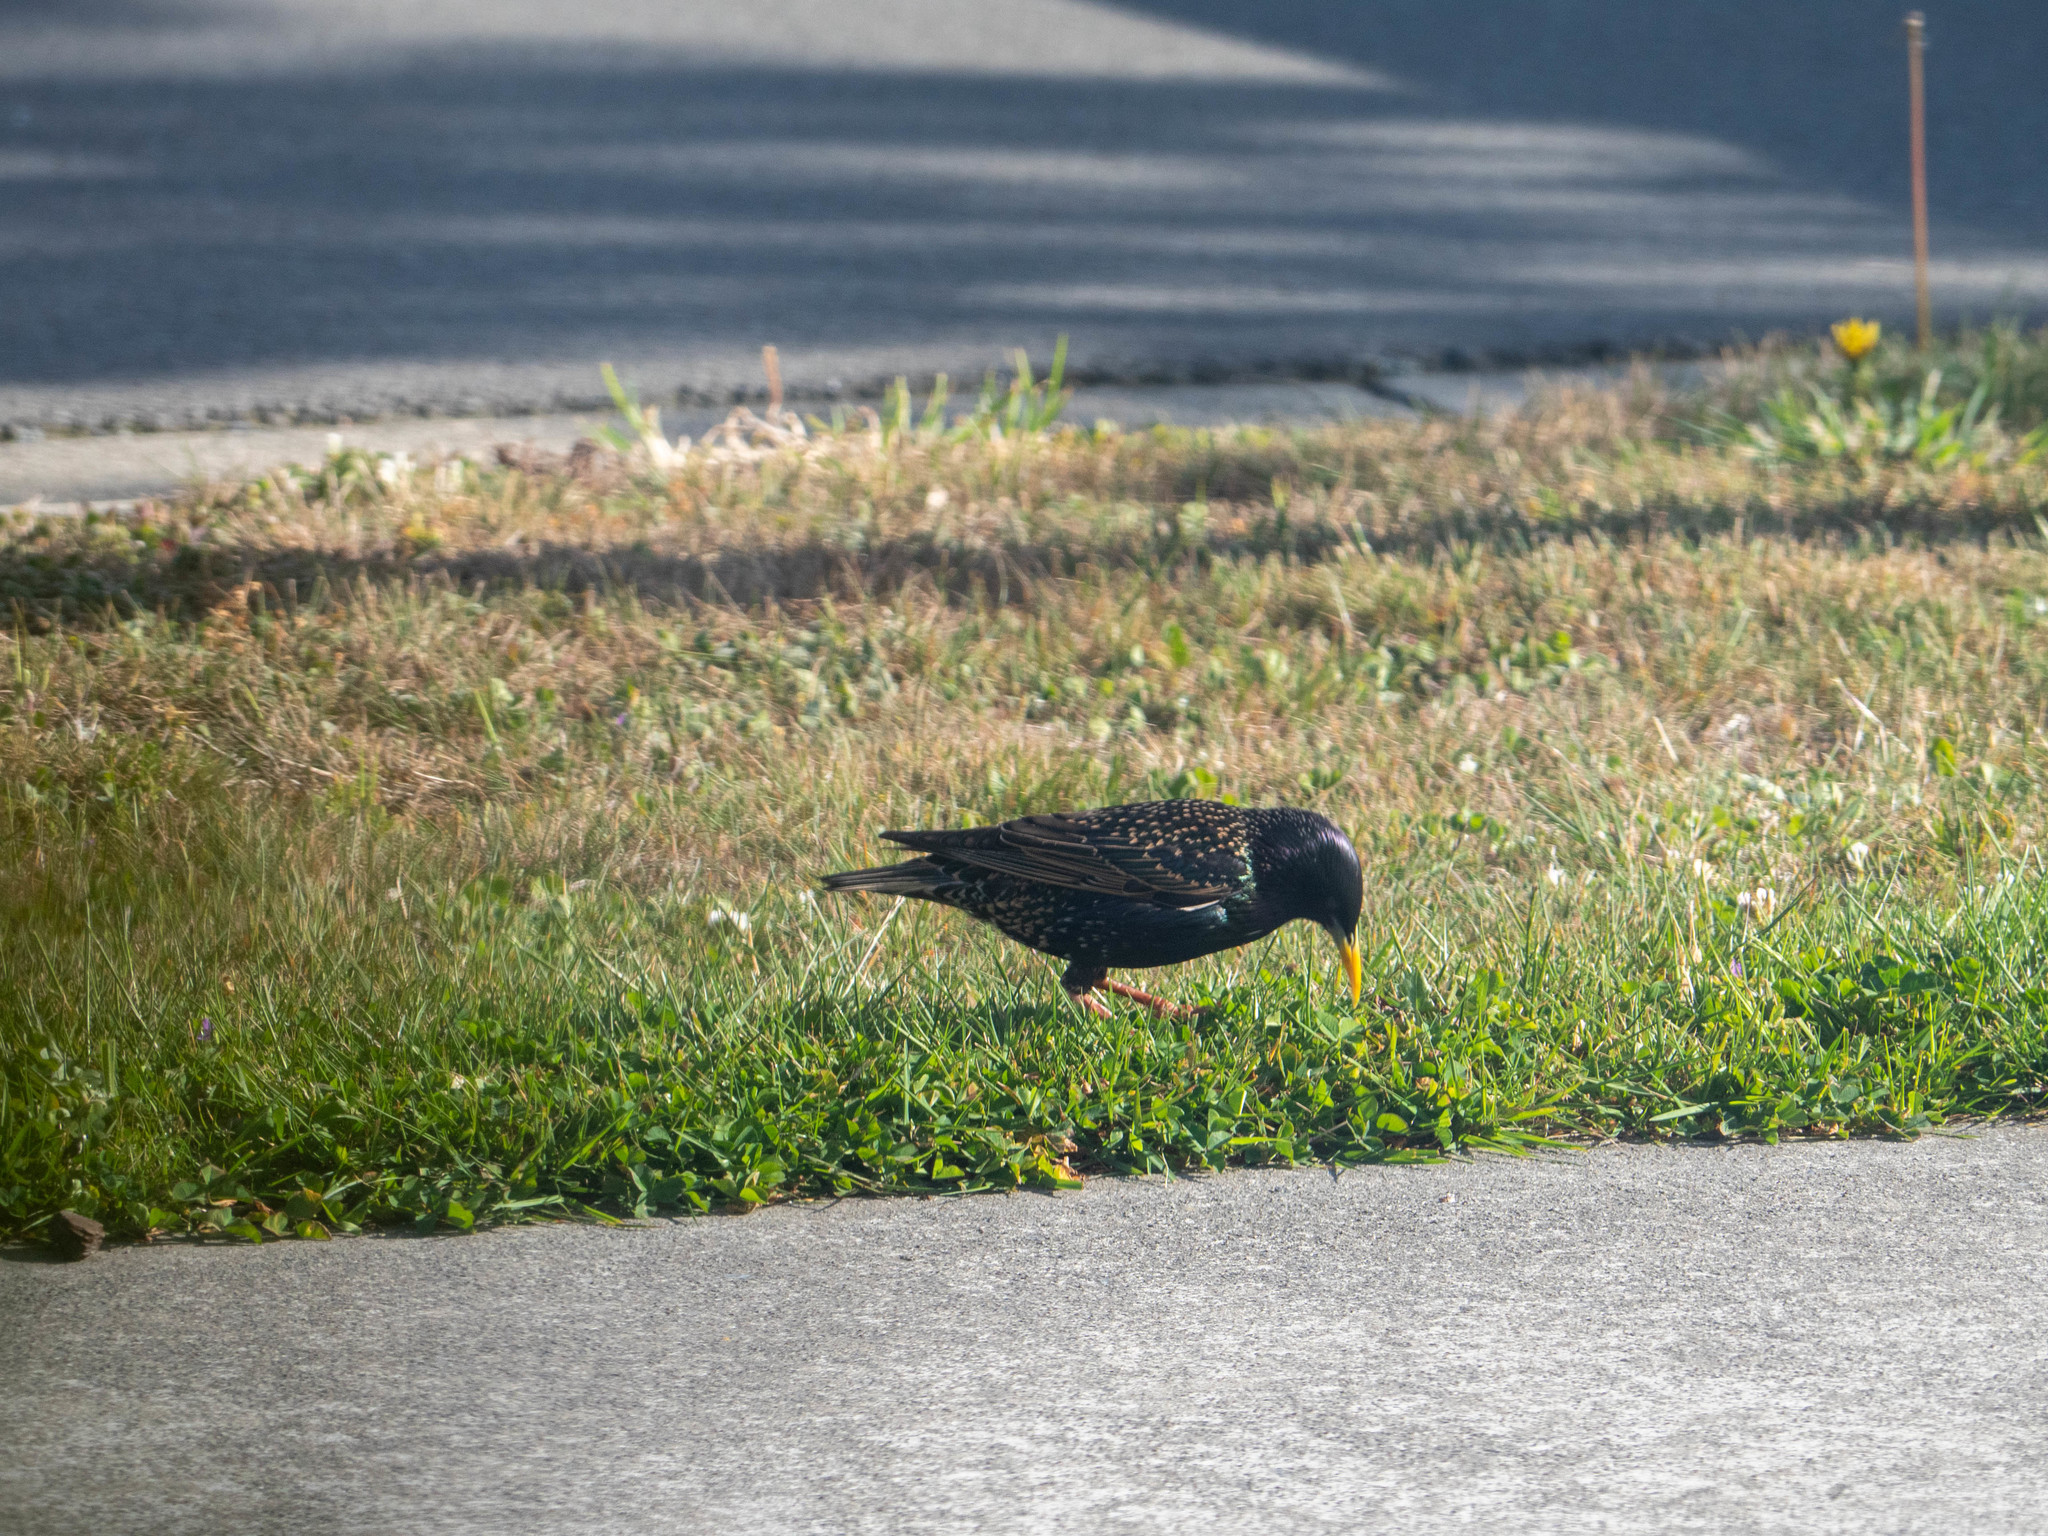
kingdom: Animalia
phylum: Chordata
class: Aves
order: Passeriformes
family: Sturnidae
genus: Sturnus
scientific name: Sturnus vulgaris
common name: Common starling
